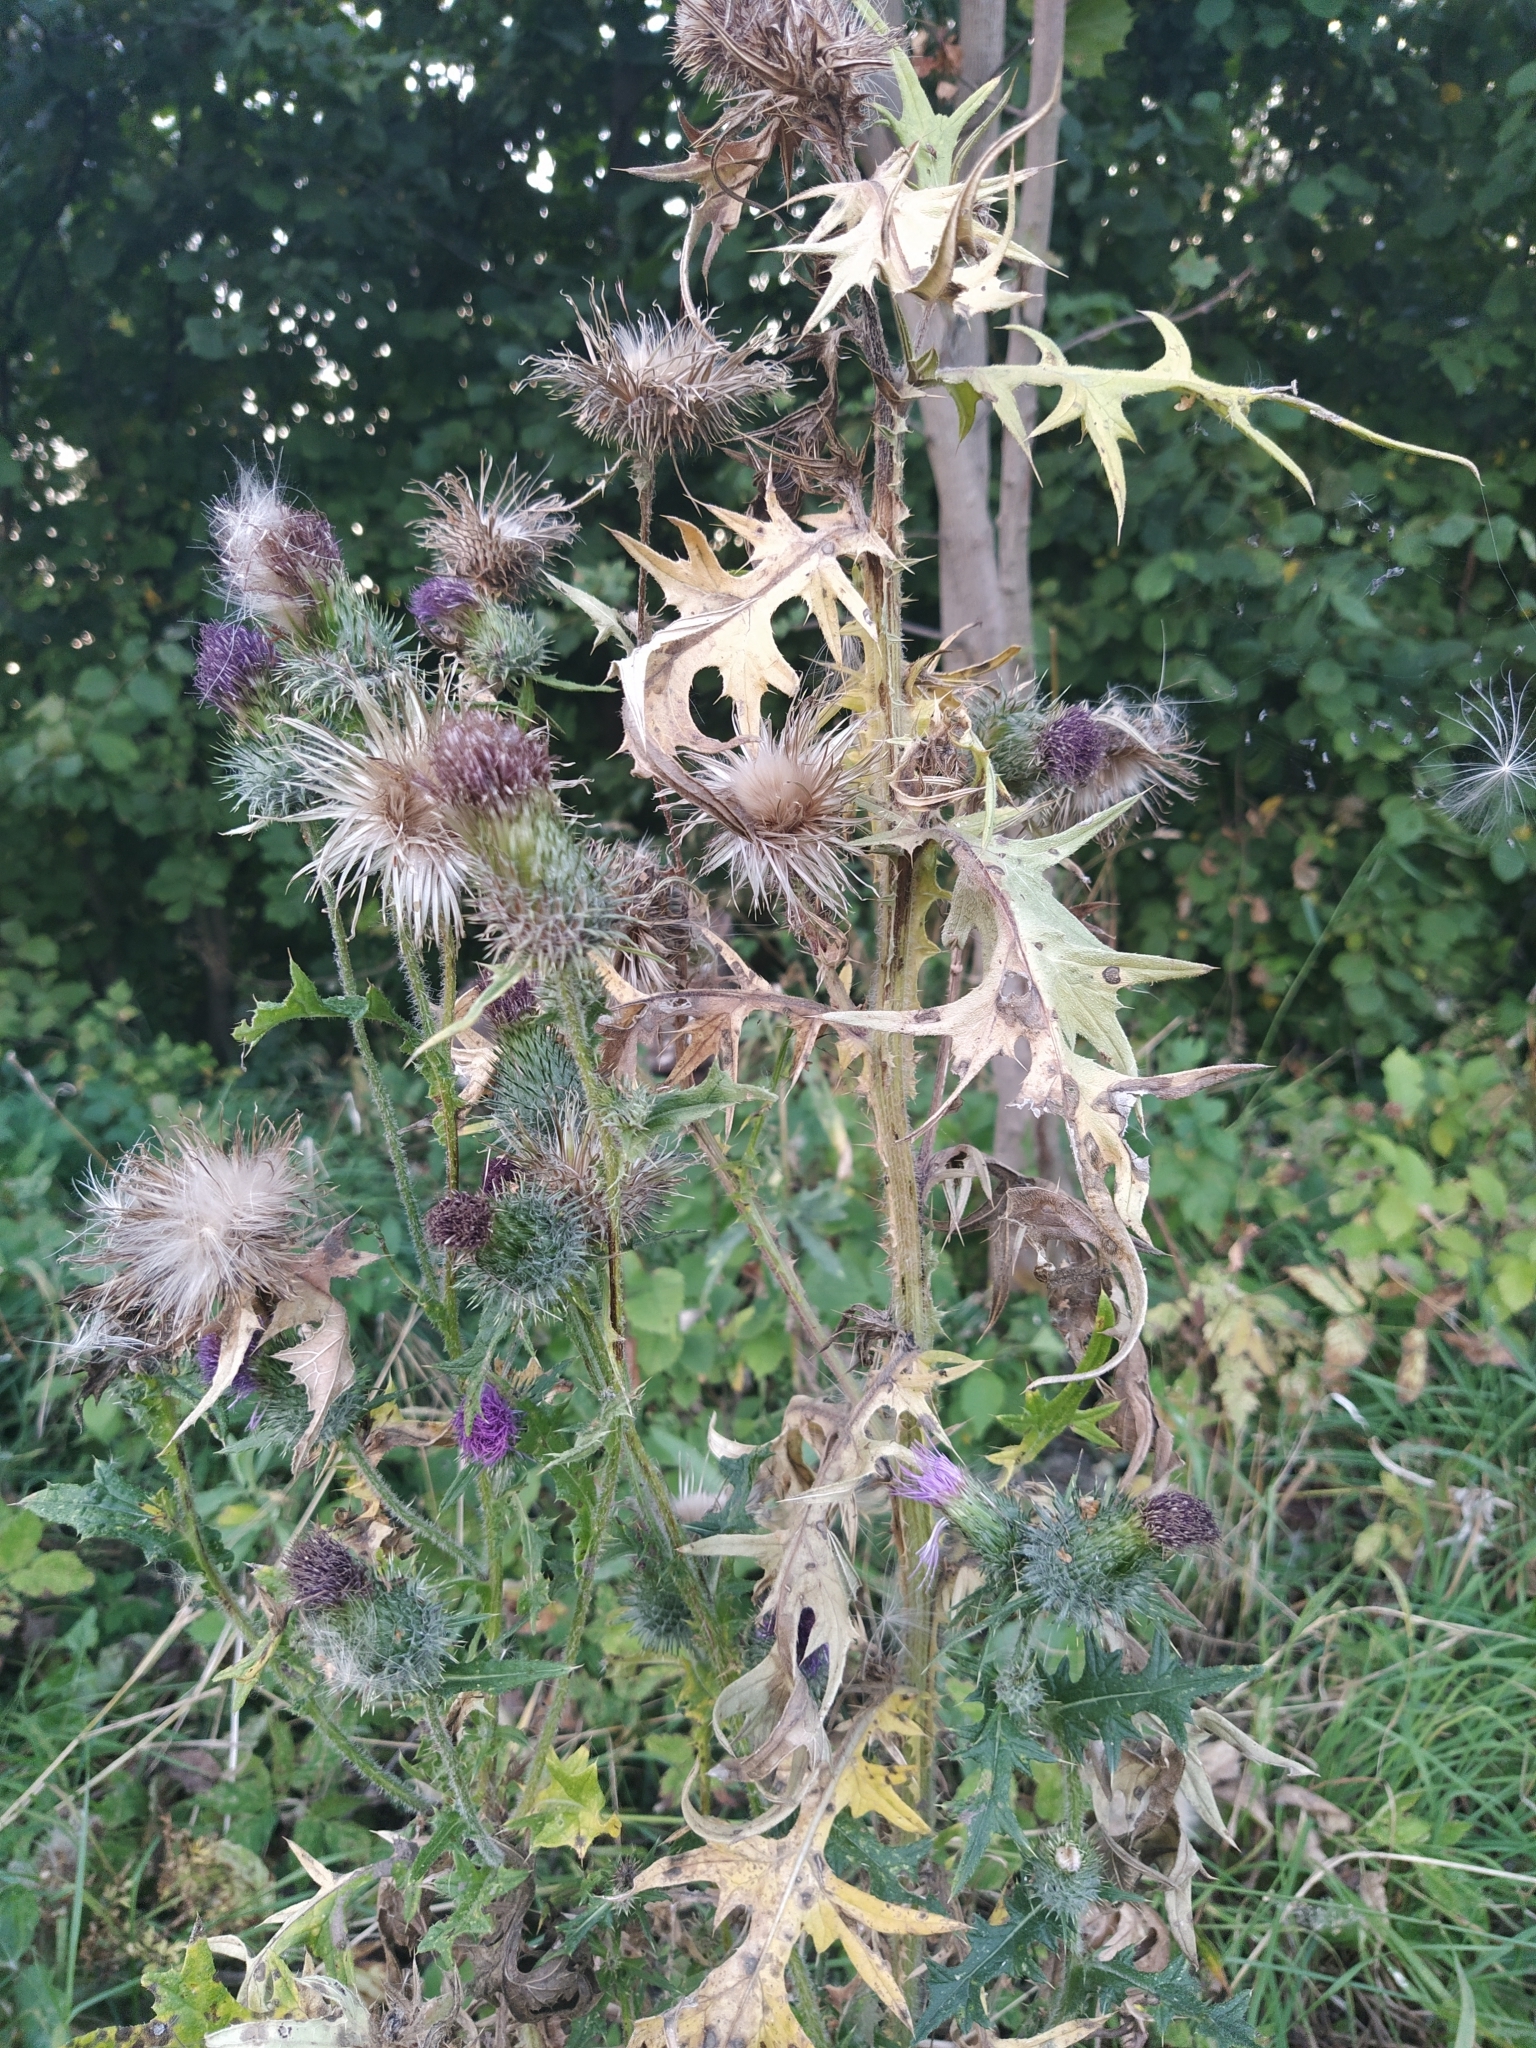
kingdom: Plantae
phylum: Tracheophyta
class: Magnoliopsida
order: Asterales
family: Asteraceae
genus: Cirsium
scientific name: Cirsium vulgare
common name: Bull thistle
